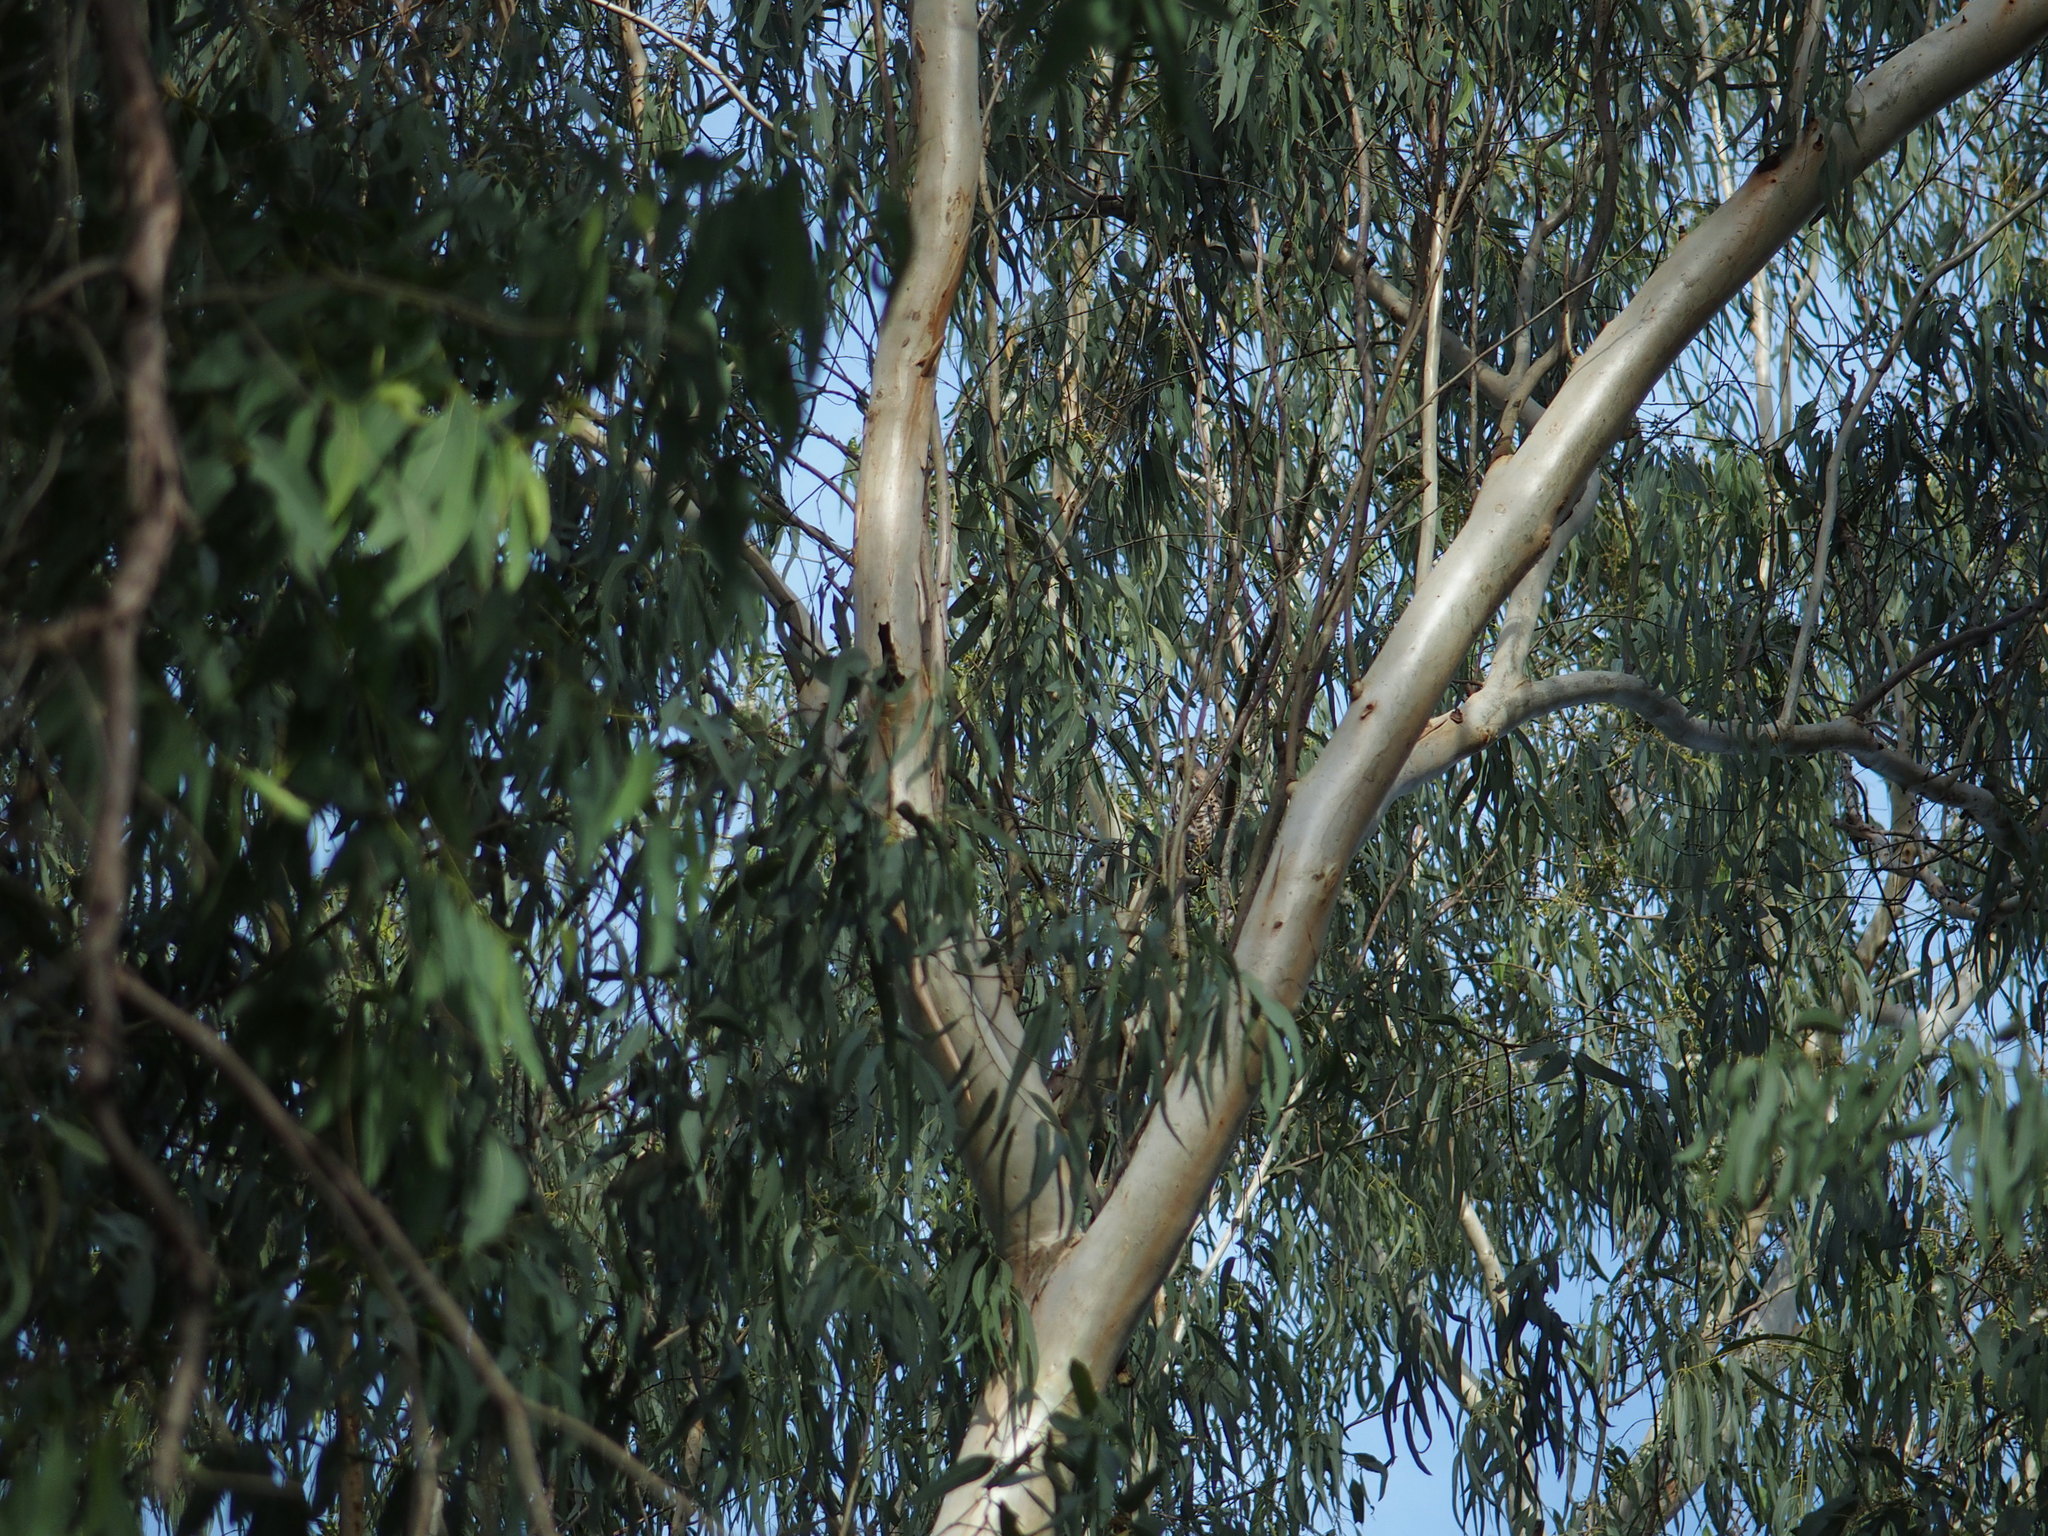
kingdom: Animalia
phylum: Chordata
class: Aves
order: Accipitriformes
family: Accipitridae
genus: Accipiter
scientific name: Accipiter trivirgatus
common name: Crested goshawk
